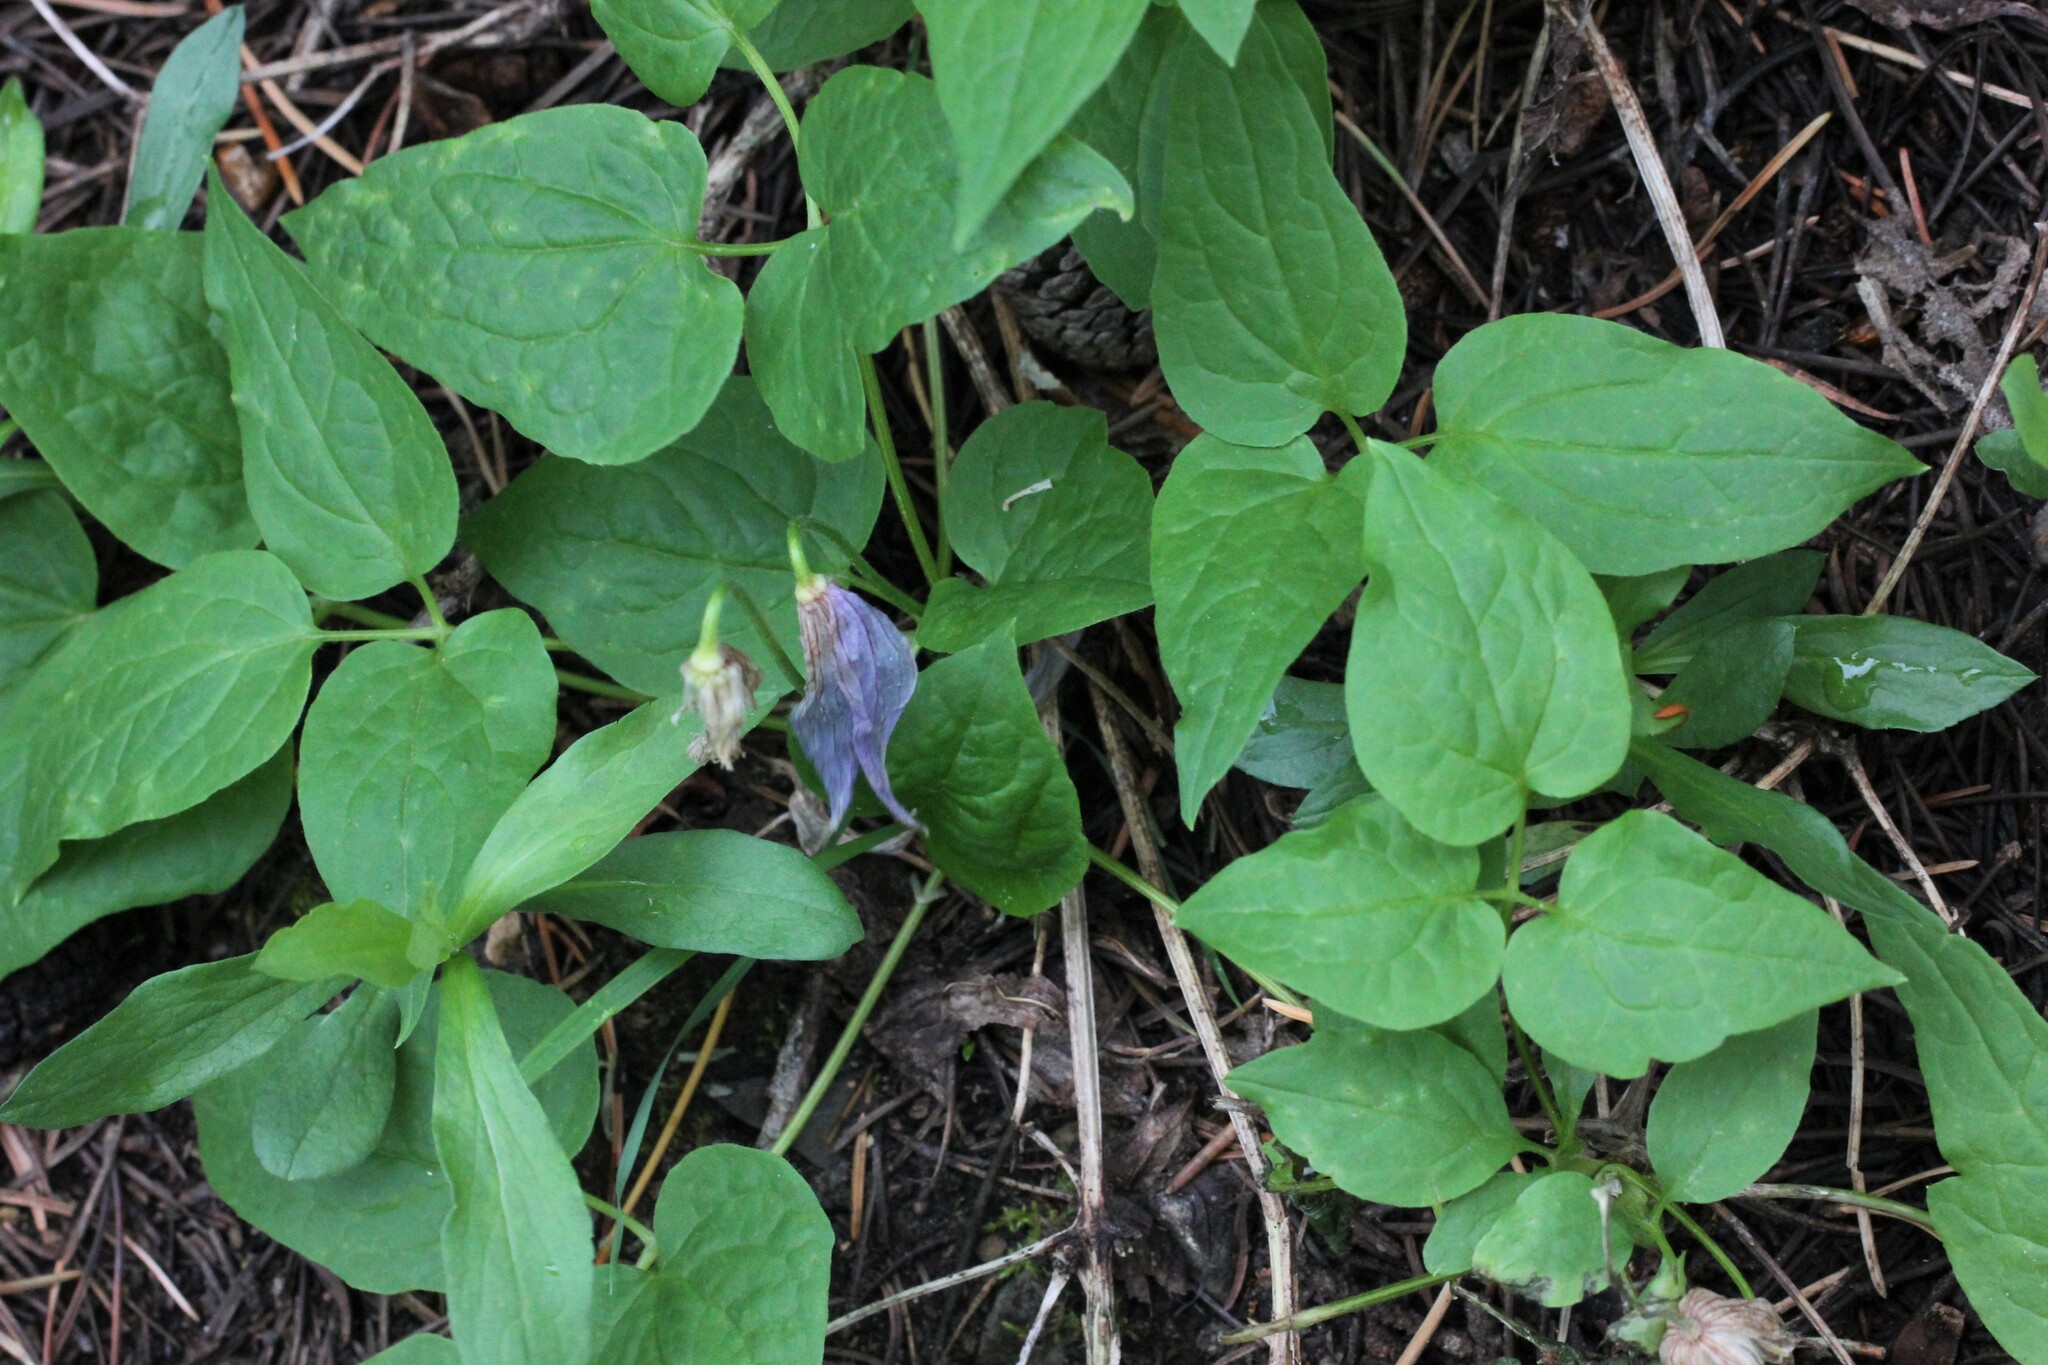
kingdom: Plantae
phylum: Tracheophyta
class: Magnoliopsida
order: Ranunculales
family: Ranunculaceae
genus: Clematis
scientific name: Clematis occidentalis
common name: Purple clematis
